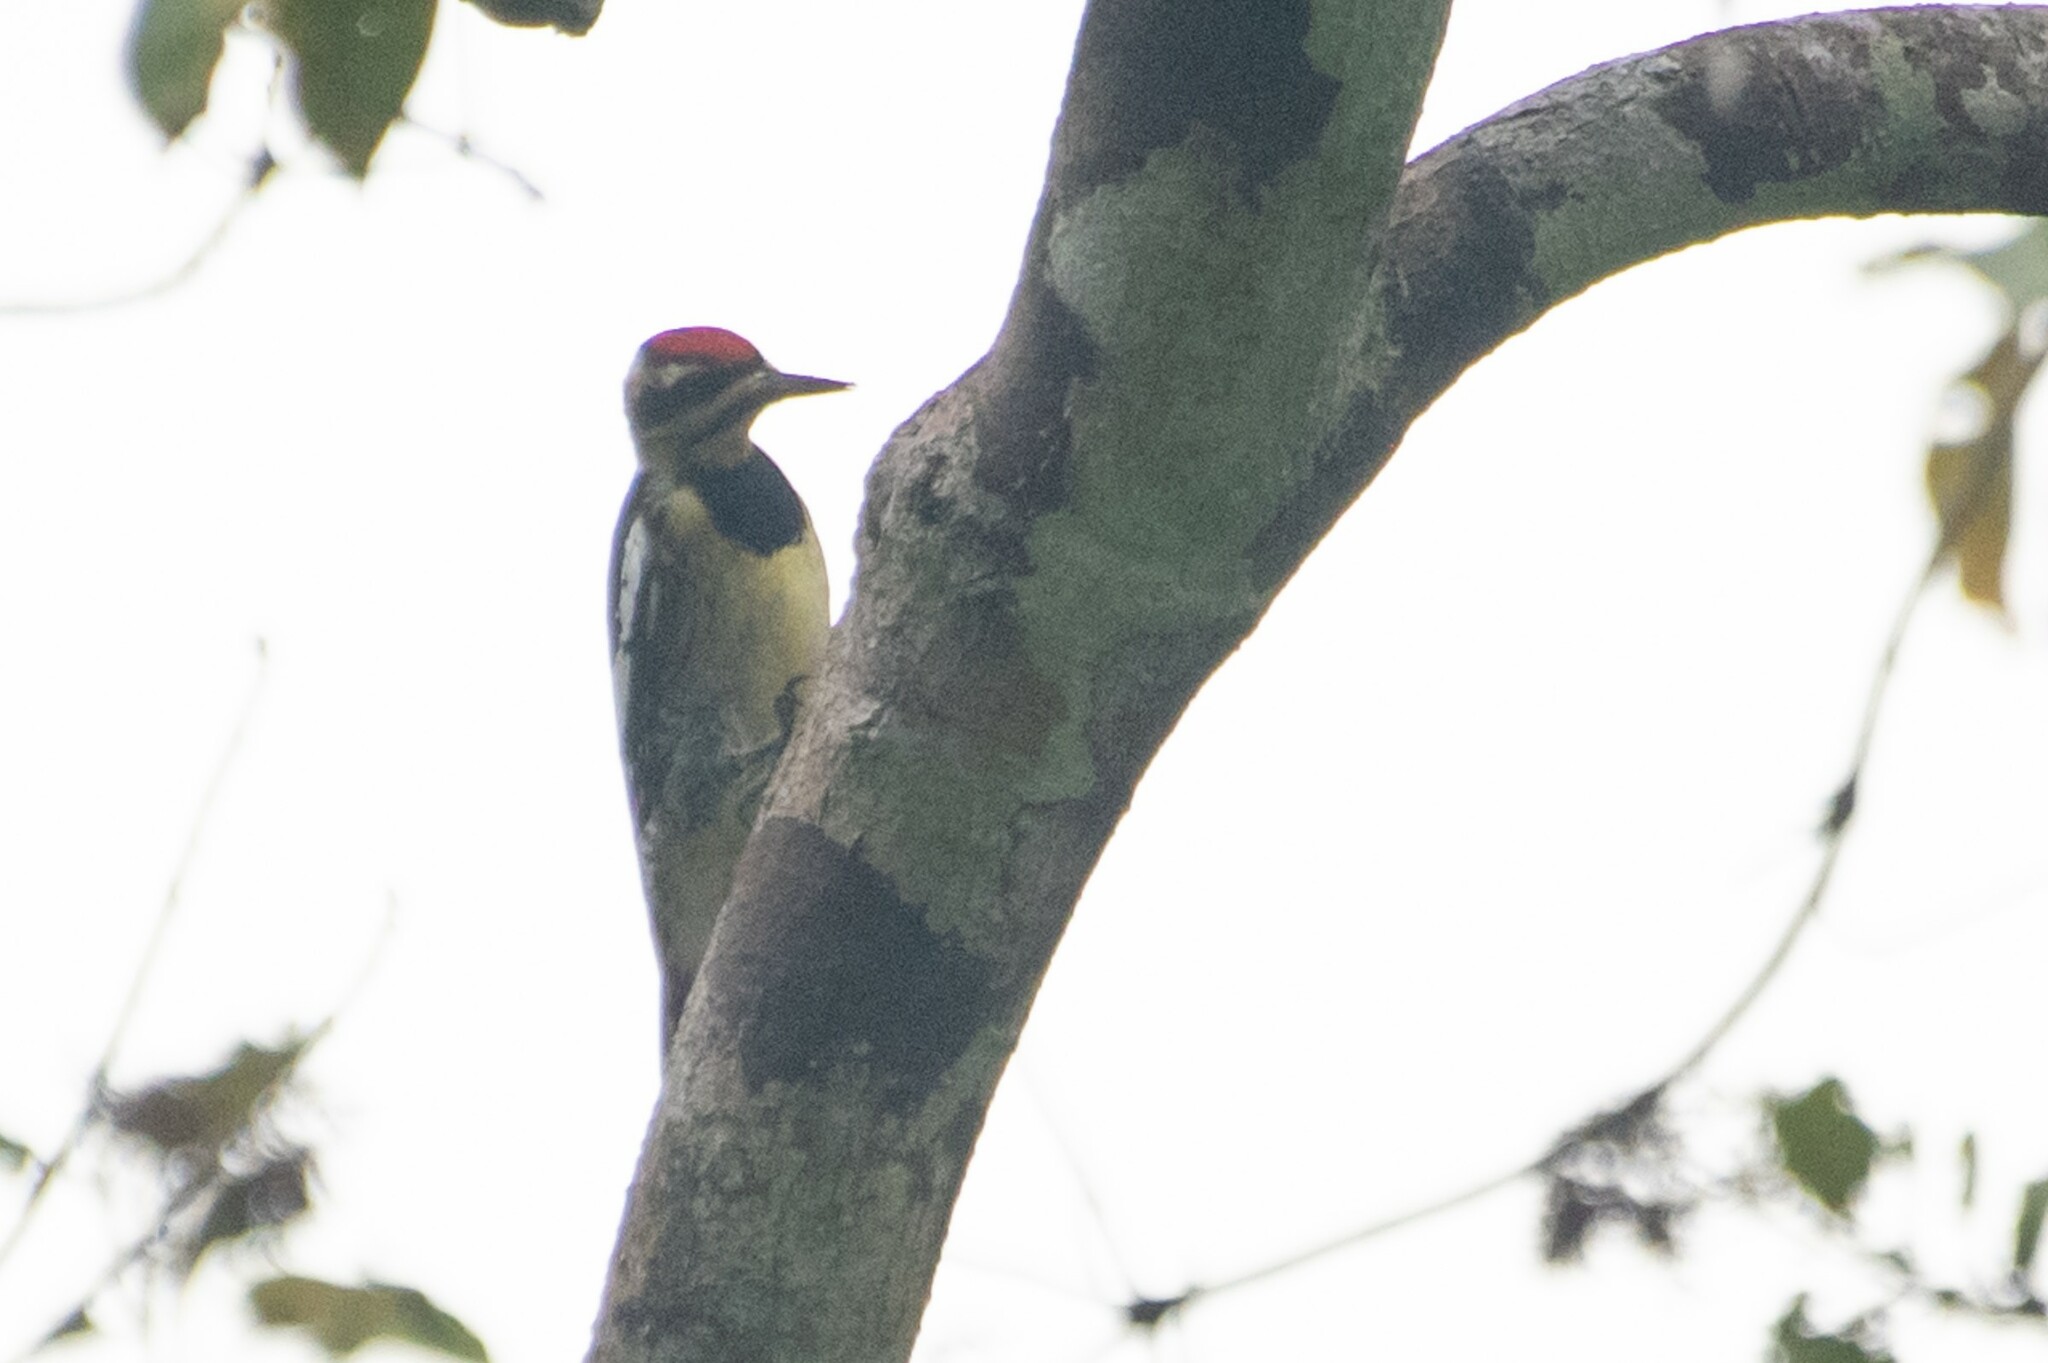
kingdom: Animalia
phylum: Chordata
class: Aves
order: Piciformes
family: Picidae
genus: Sphyrapicus
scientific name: Sphyrapicus varius
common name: Yellow-bellied sapsucker
